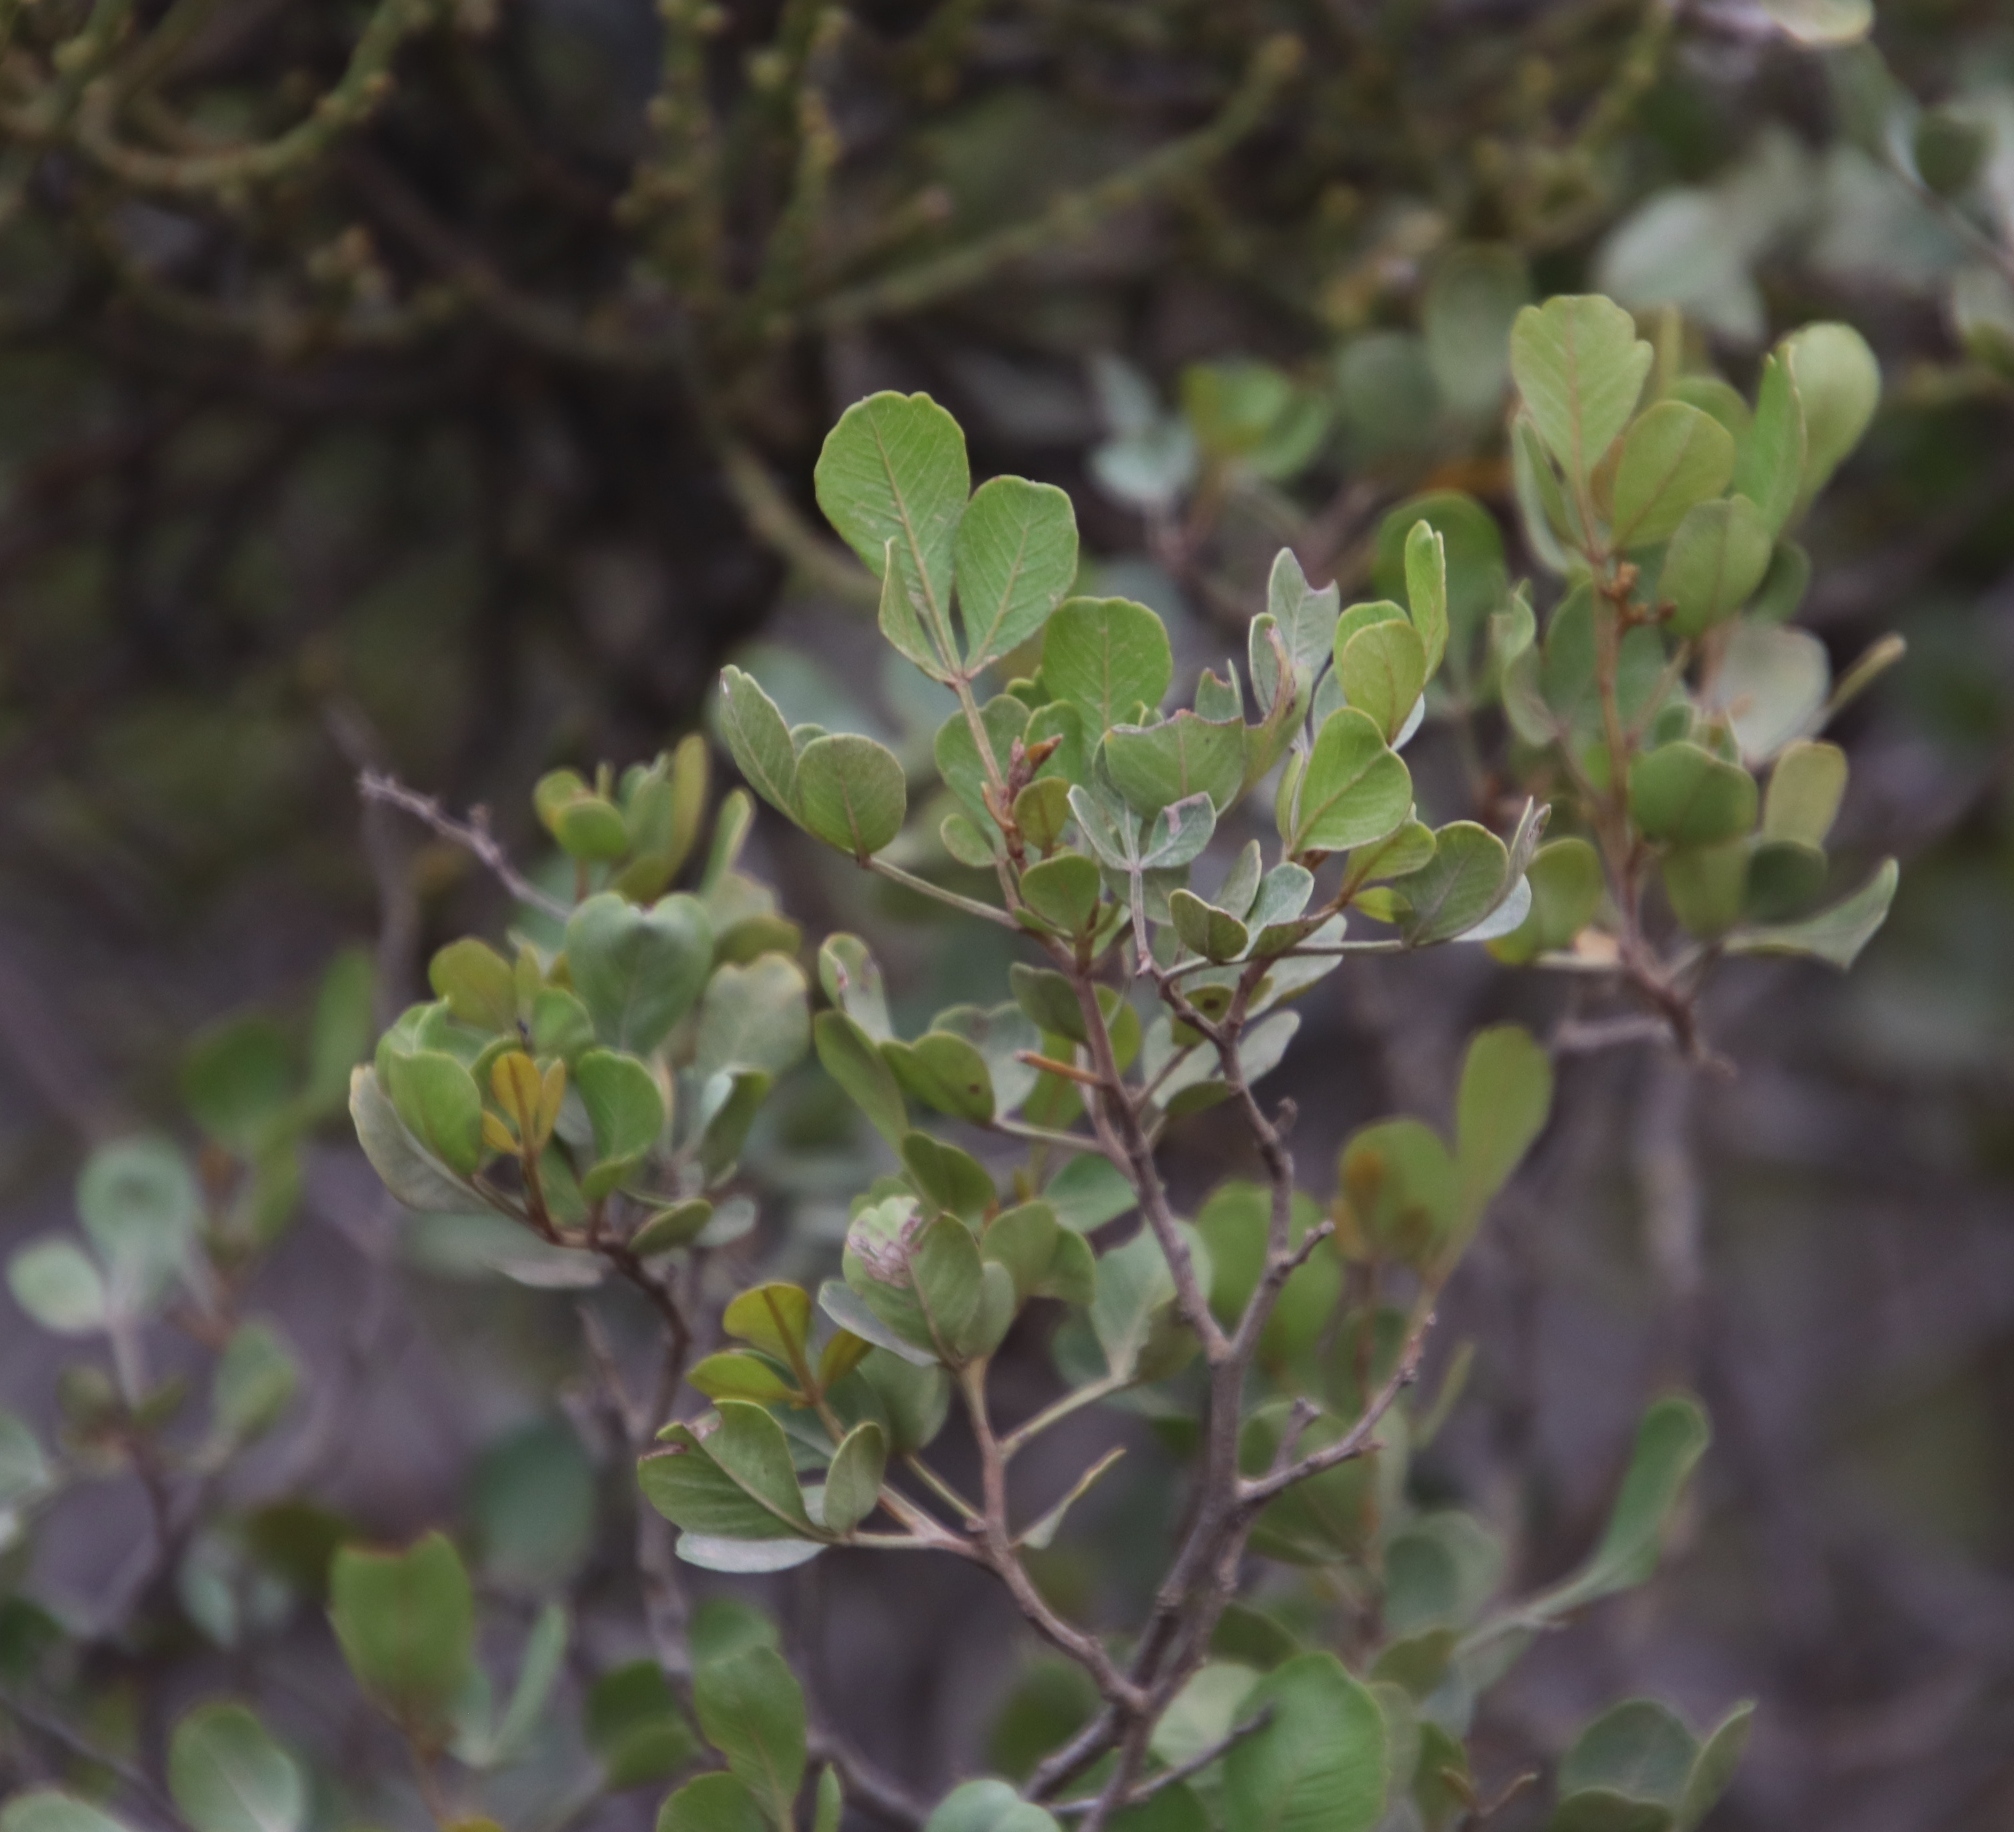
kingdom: Plantae
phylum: Tracheophyta
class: Magnoliopsida
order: Santalales
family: Viscaceae
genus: Viscum
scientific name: Viscum capense
